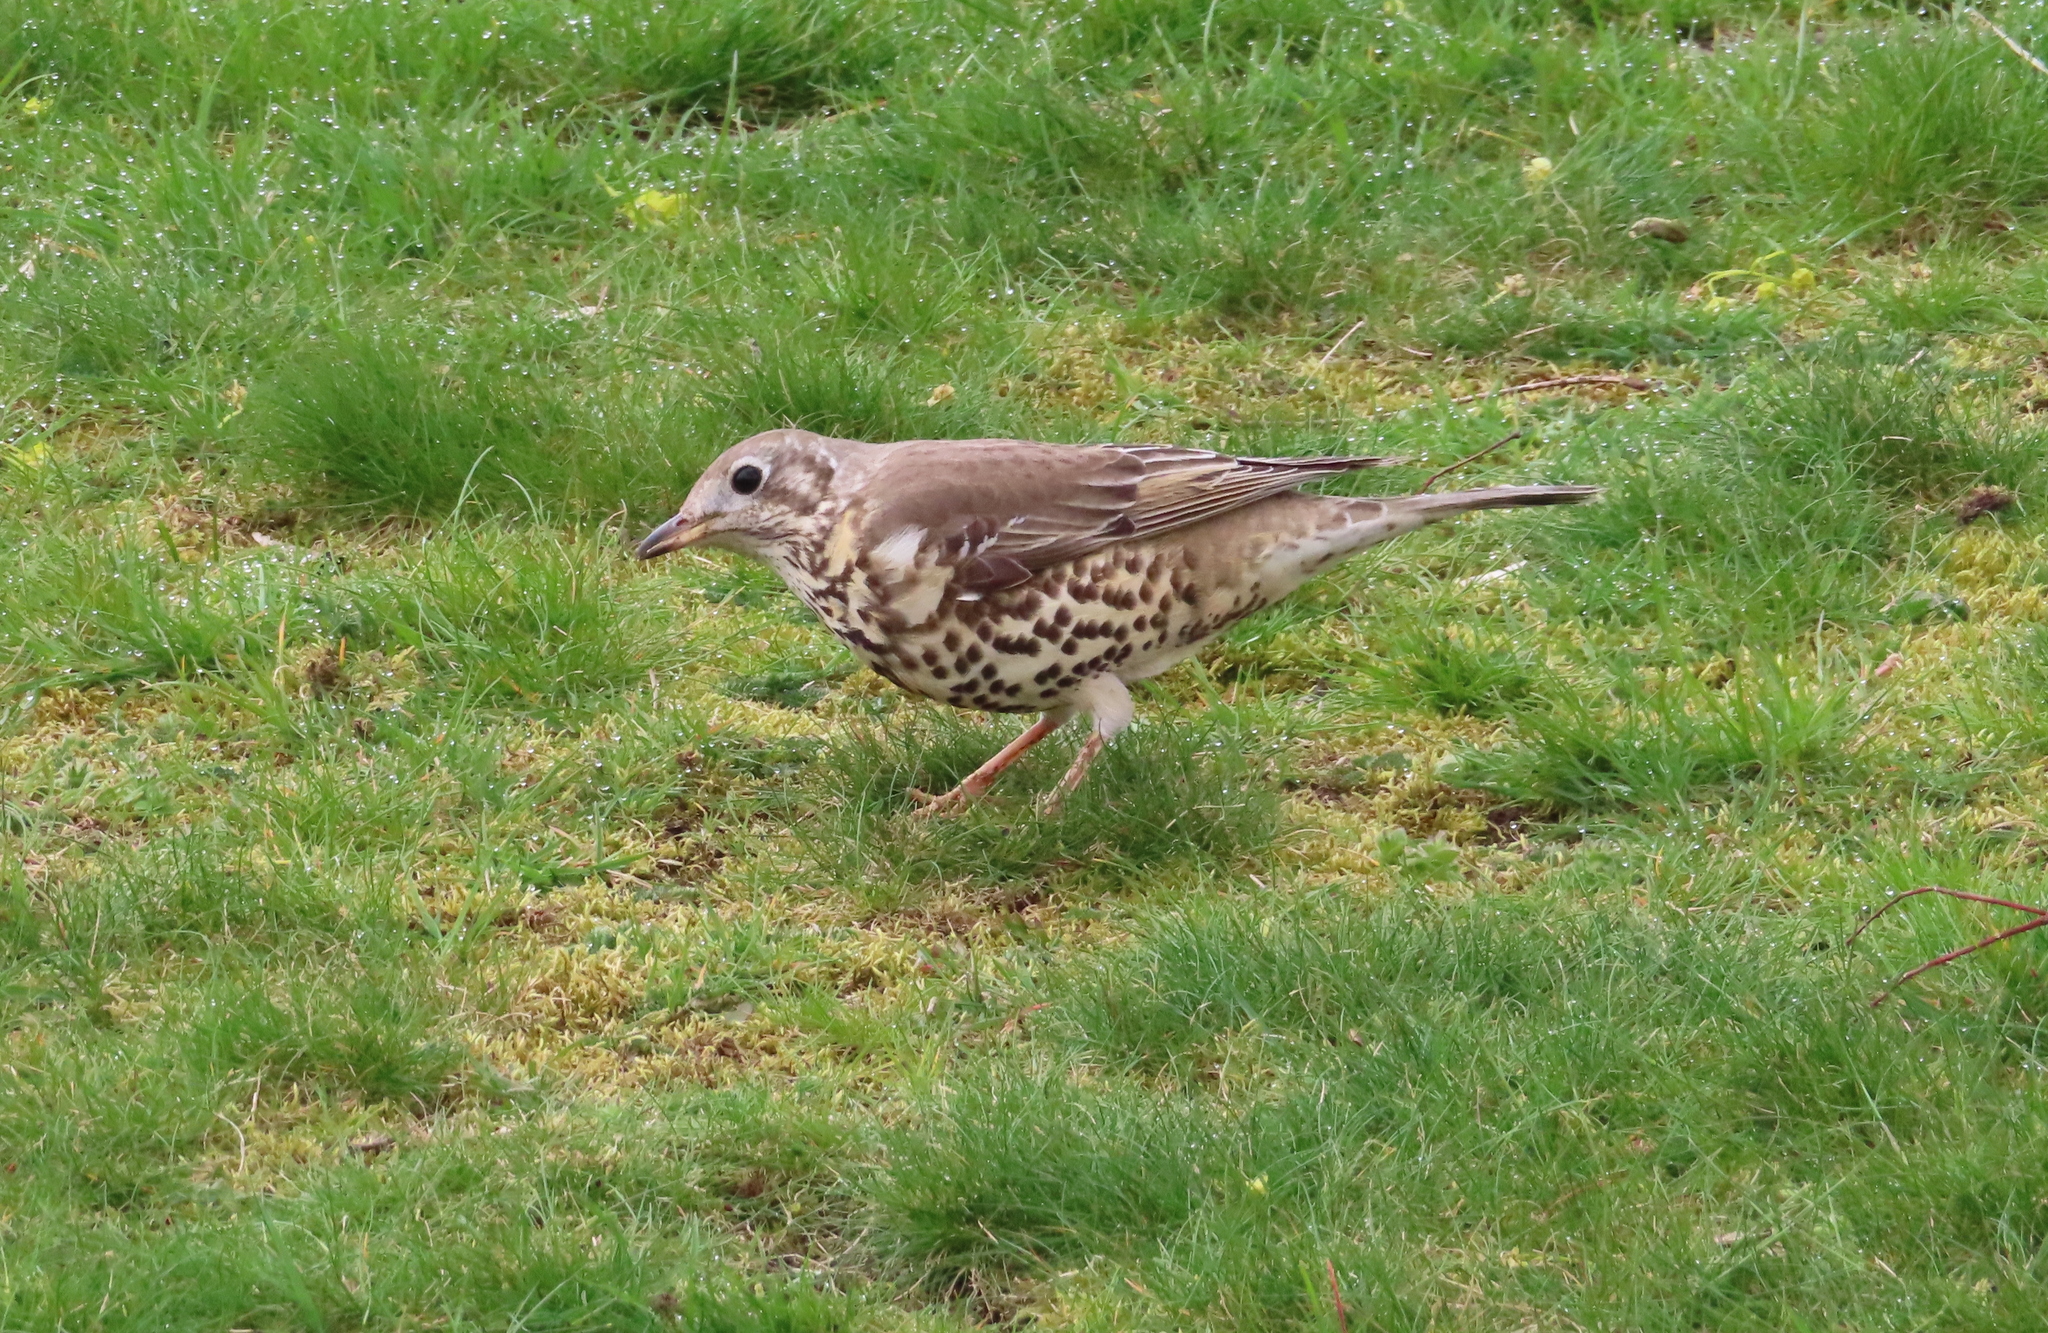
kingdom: Animalia
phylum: Chordata
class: Aves
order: Passeriformes
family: Turdidae
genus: Turdus
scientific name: Turdus viscivorus
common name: Mistle thrush
